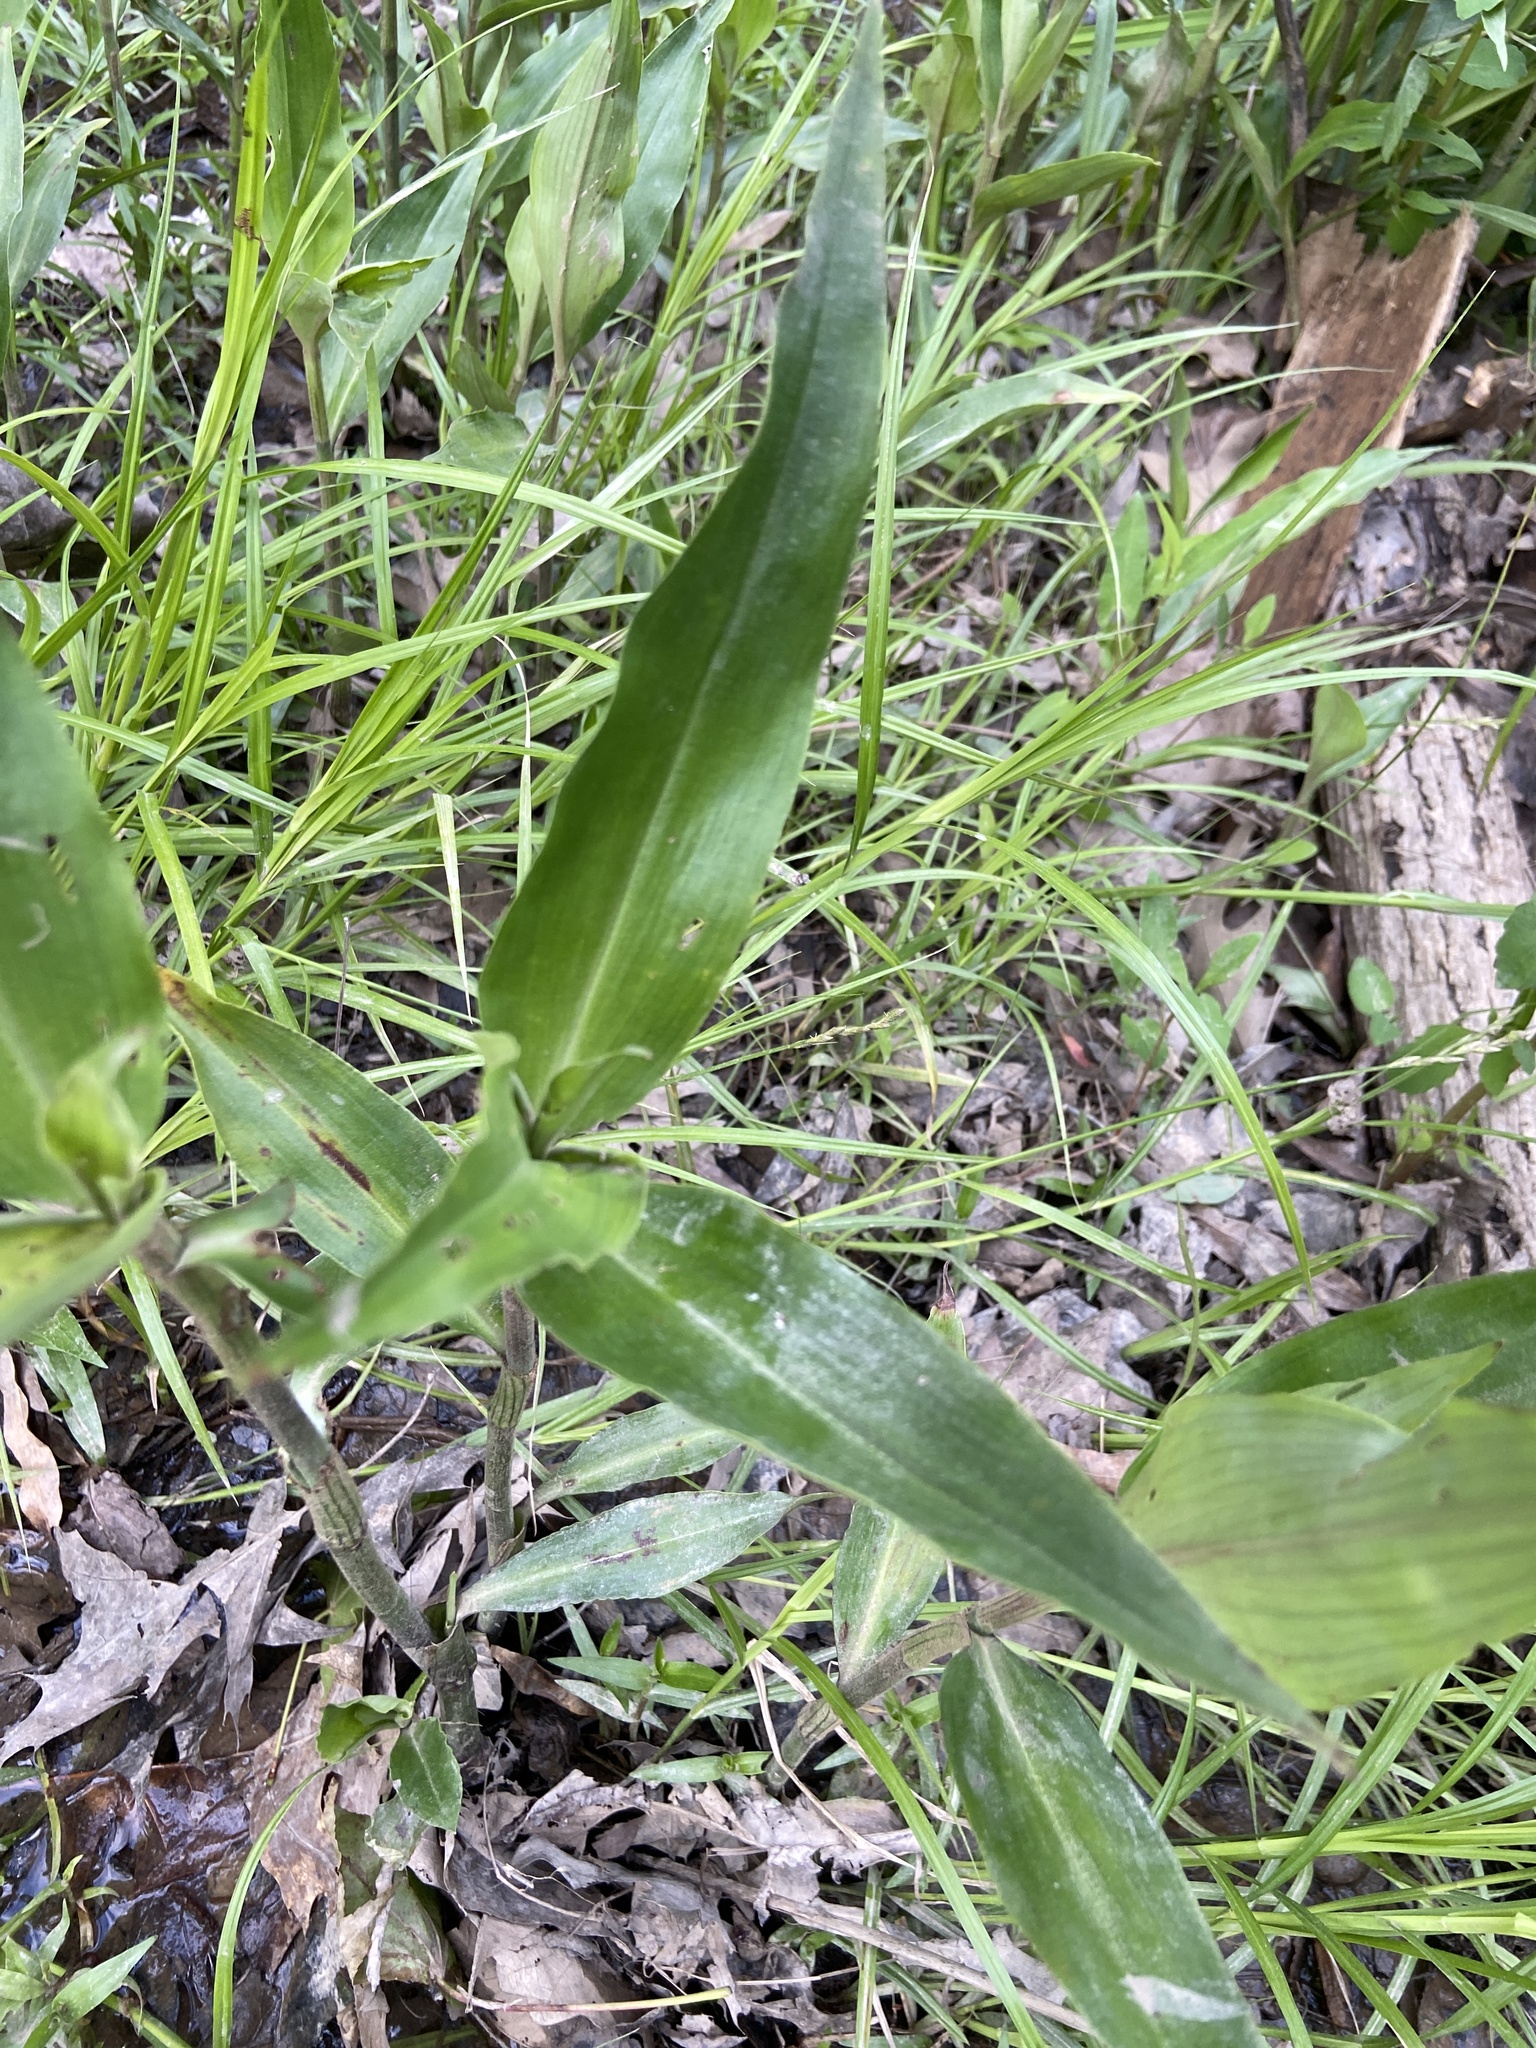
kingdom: Plantae
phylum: Tracheophyta
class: Liliopsida
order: Commelinales
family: Commelinaceae
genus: Commelina
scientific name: Commelina virginica
